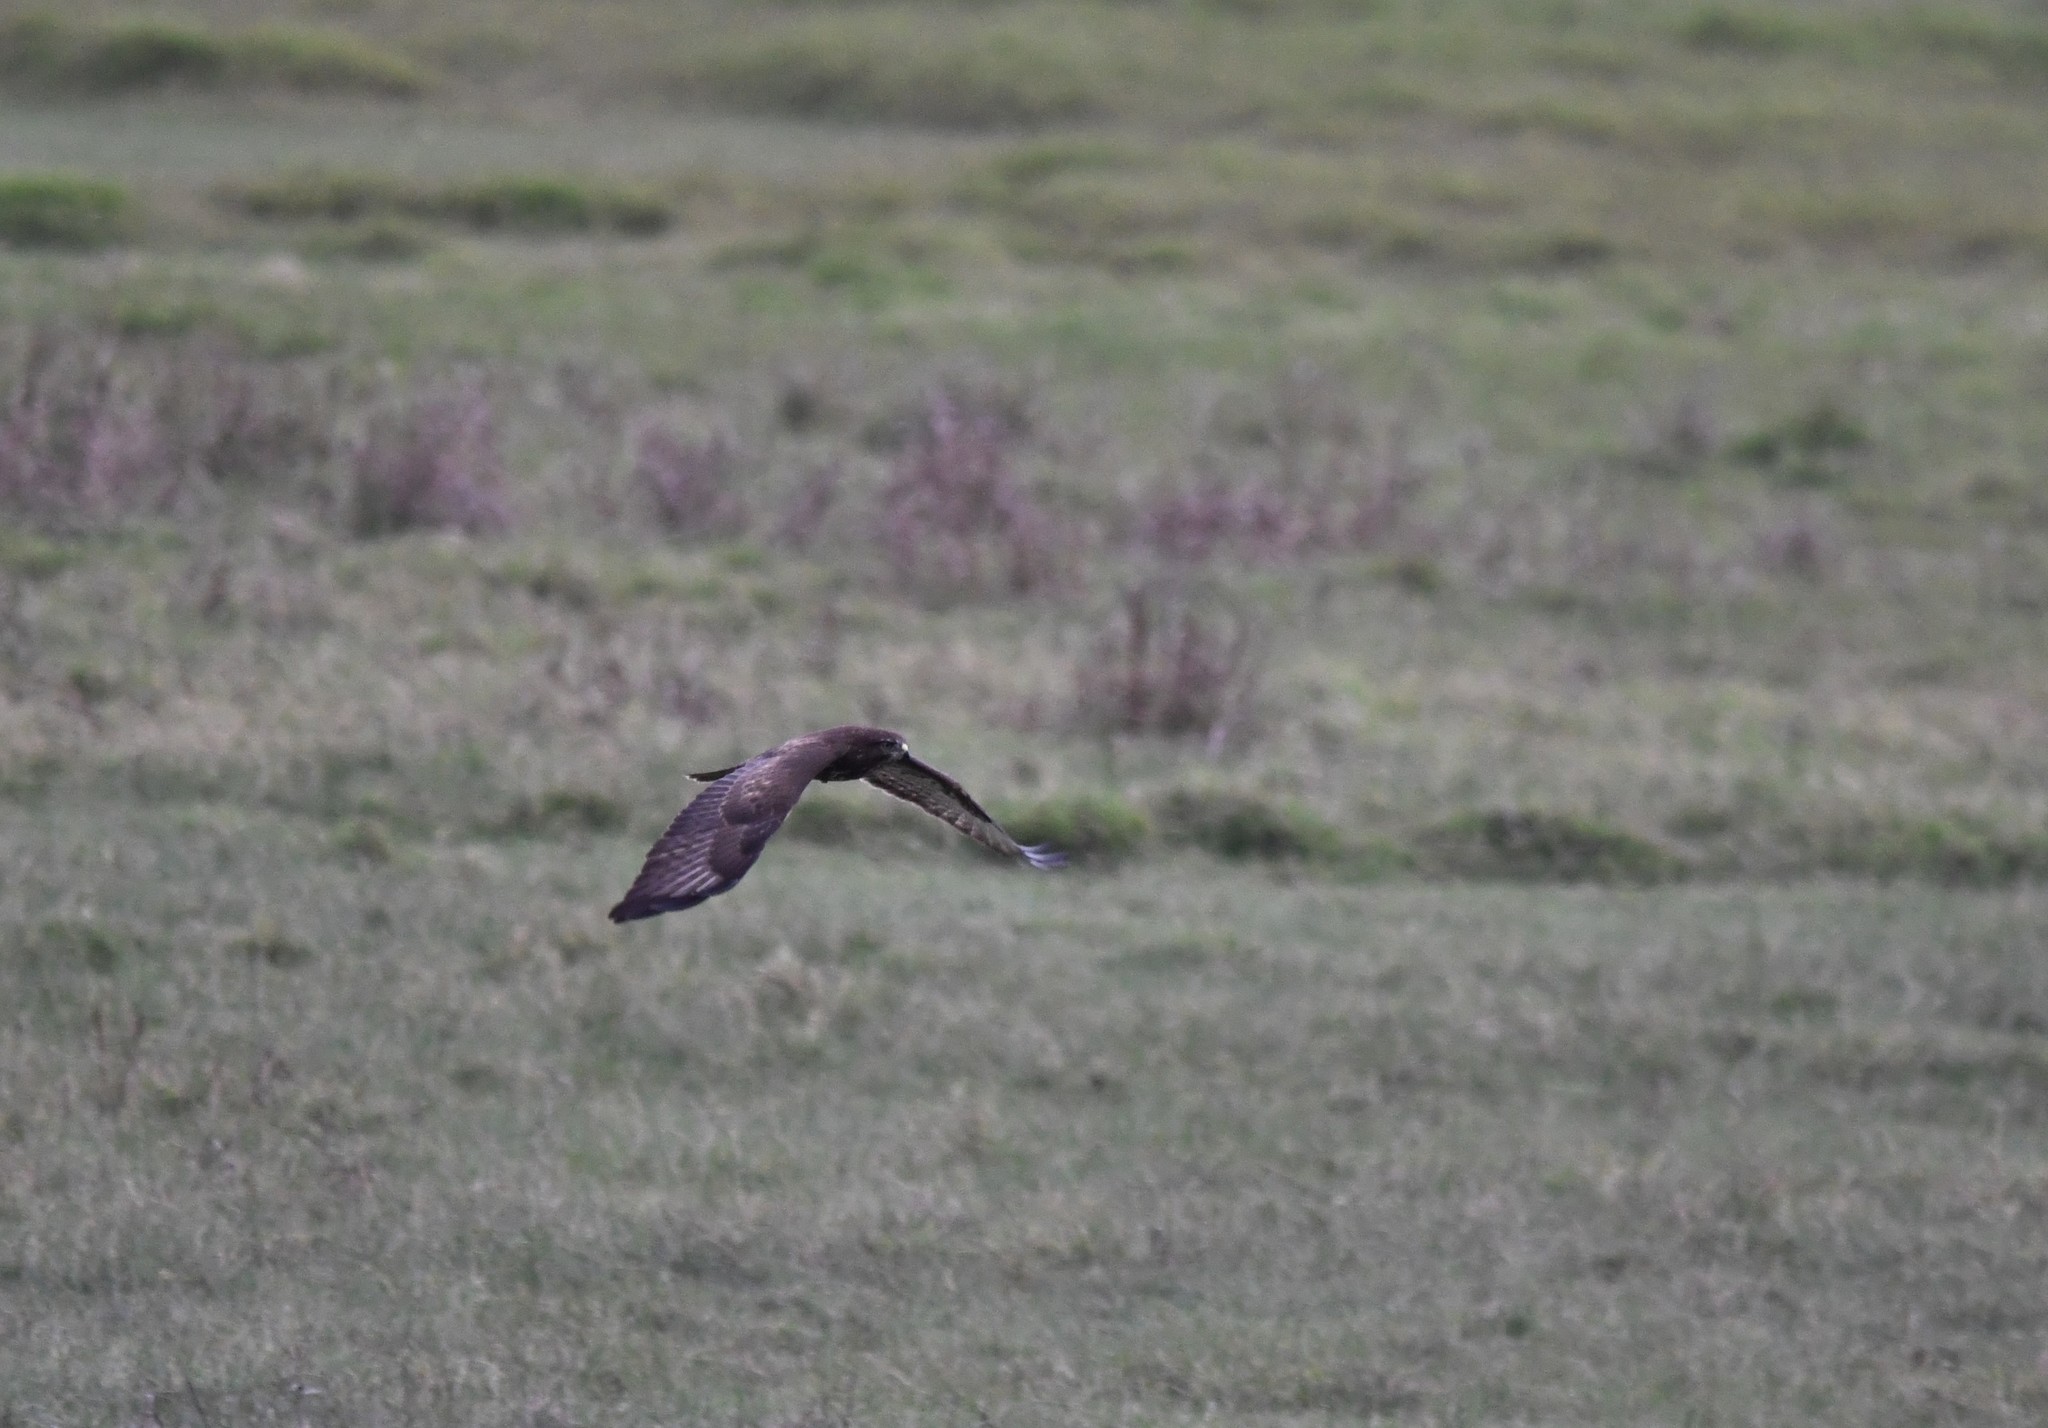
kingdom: Animalia
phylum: Chordata
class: Aves
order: Accipitriformes
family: Accipitridae
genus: Buteo
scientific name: Buteo buteo
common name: Common buzzard
